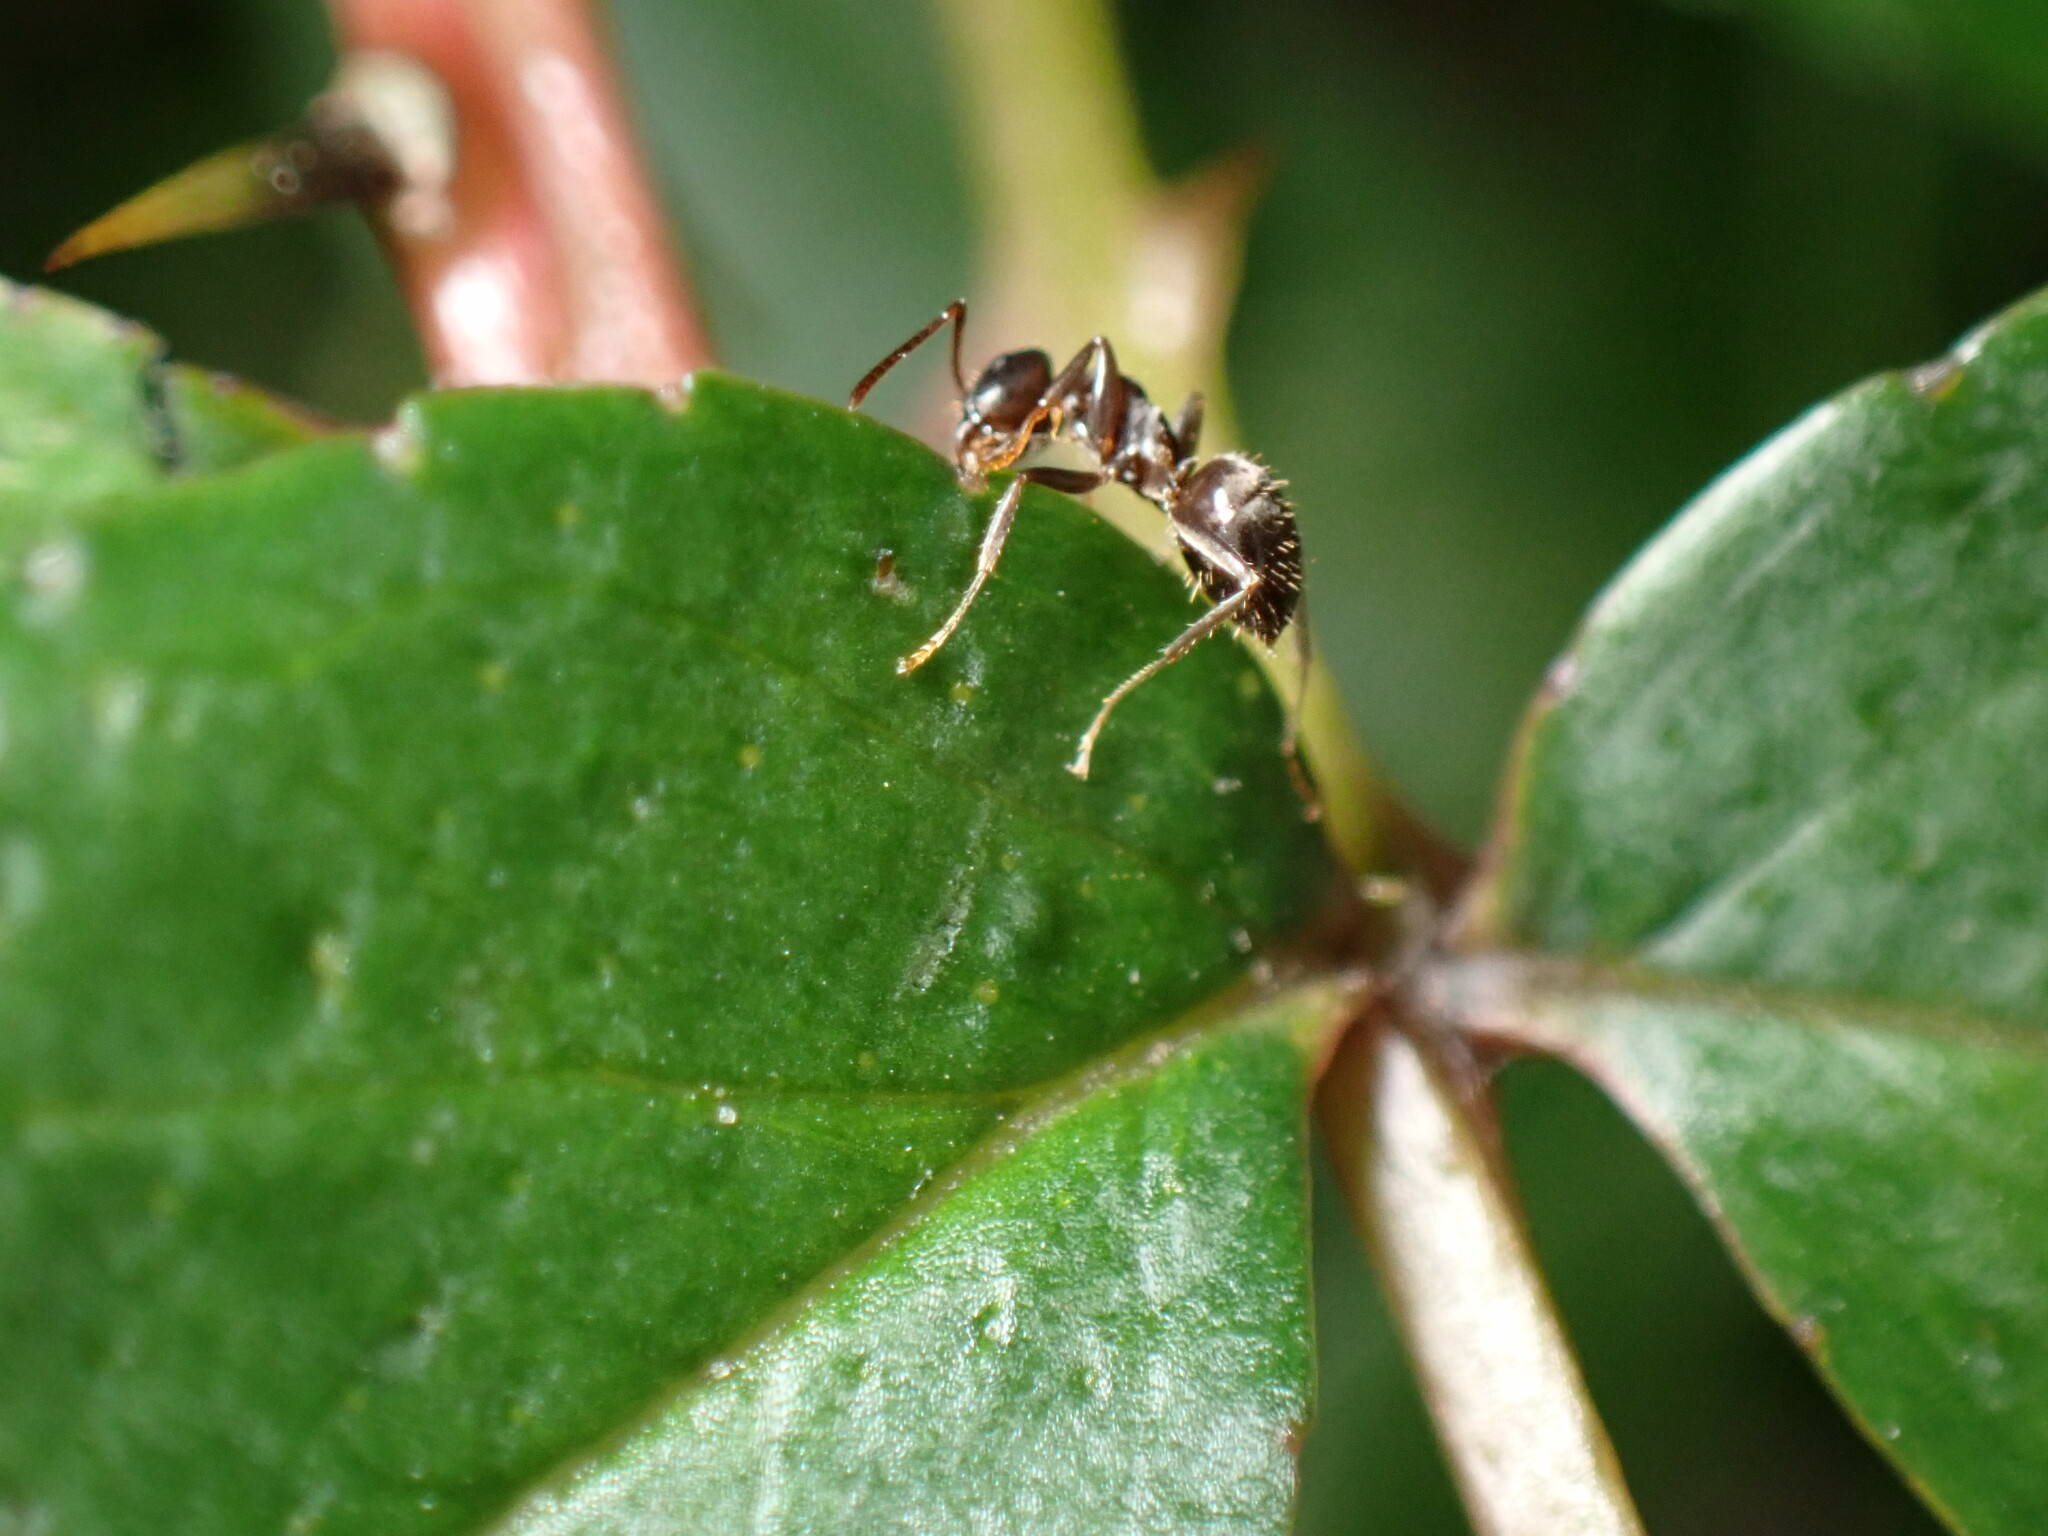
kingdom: Animalia
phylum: Arthropoda
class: Insecta
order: Hymenoptera
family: Formicidae
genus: Lasius
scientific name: Lasius japonicus
